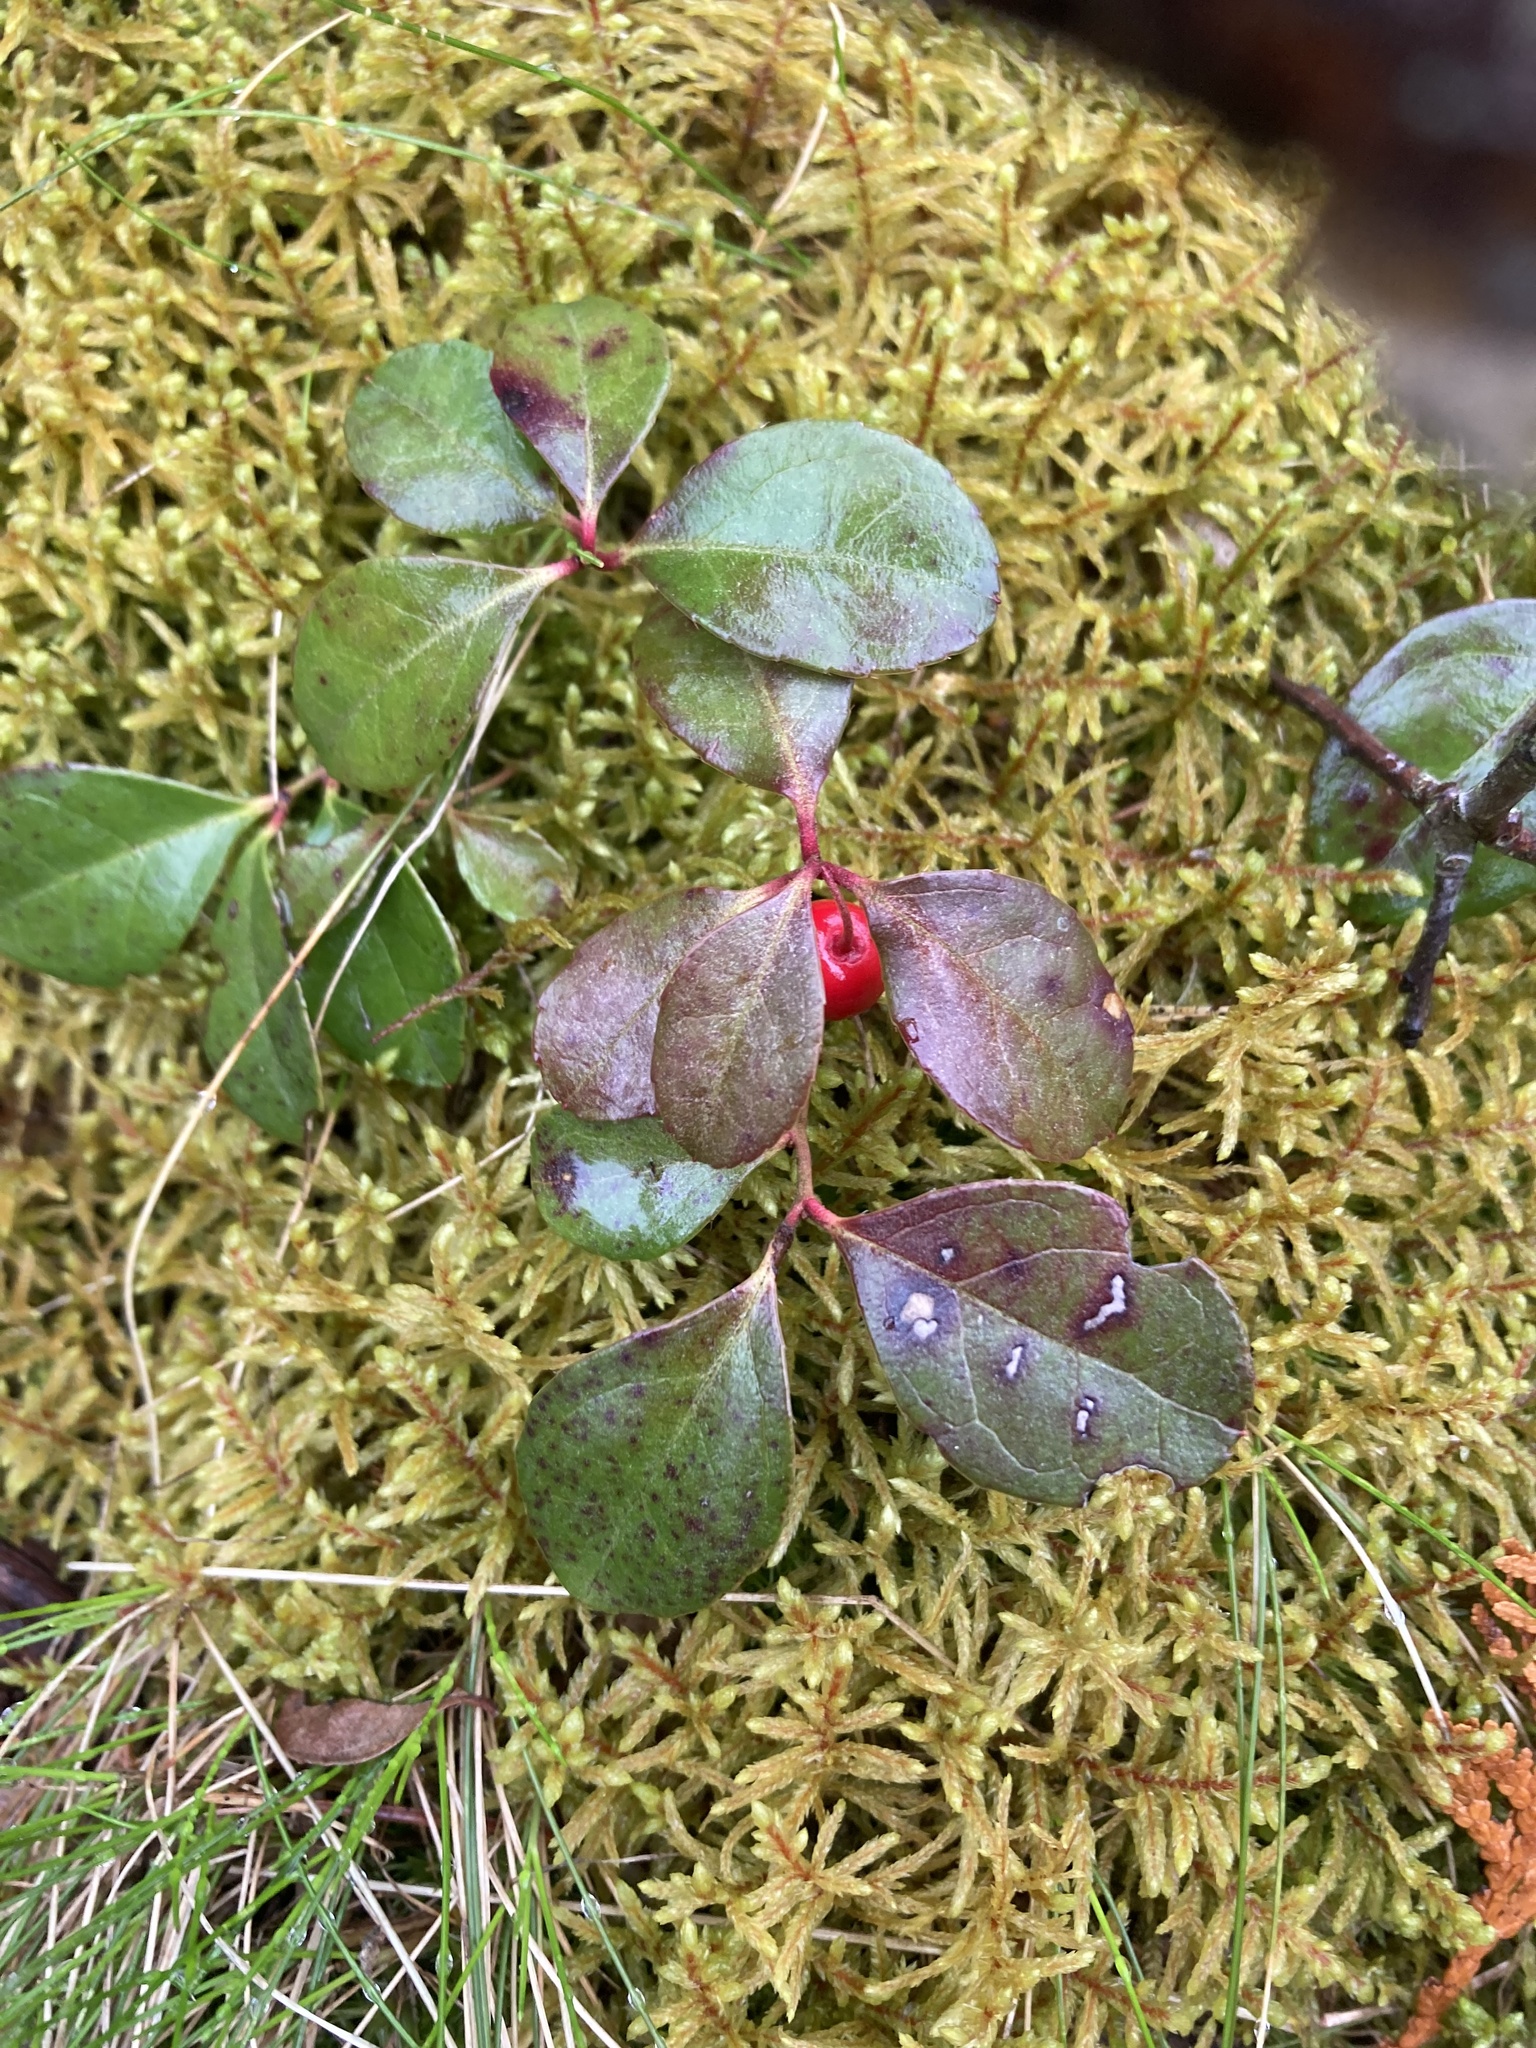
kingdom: Plantae
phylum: Tracheophyta
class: Magnoliopsida
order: Ericales
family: Ericaceae
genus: Gaultheria
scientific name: Gaultheria procumbens
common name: Checkerberry
